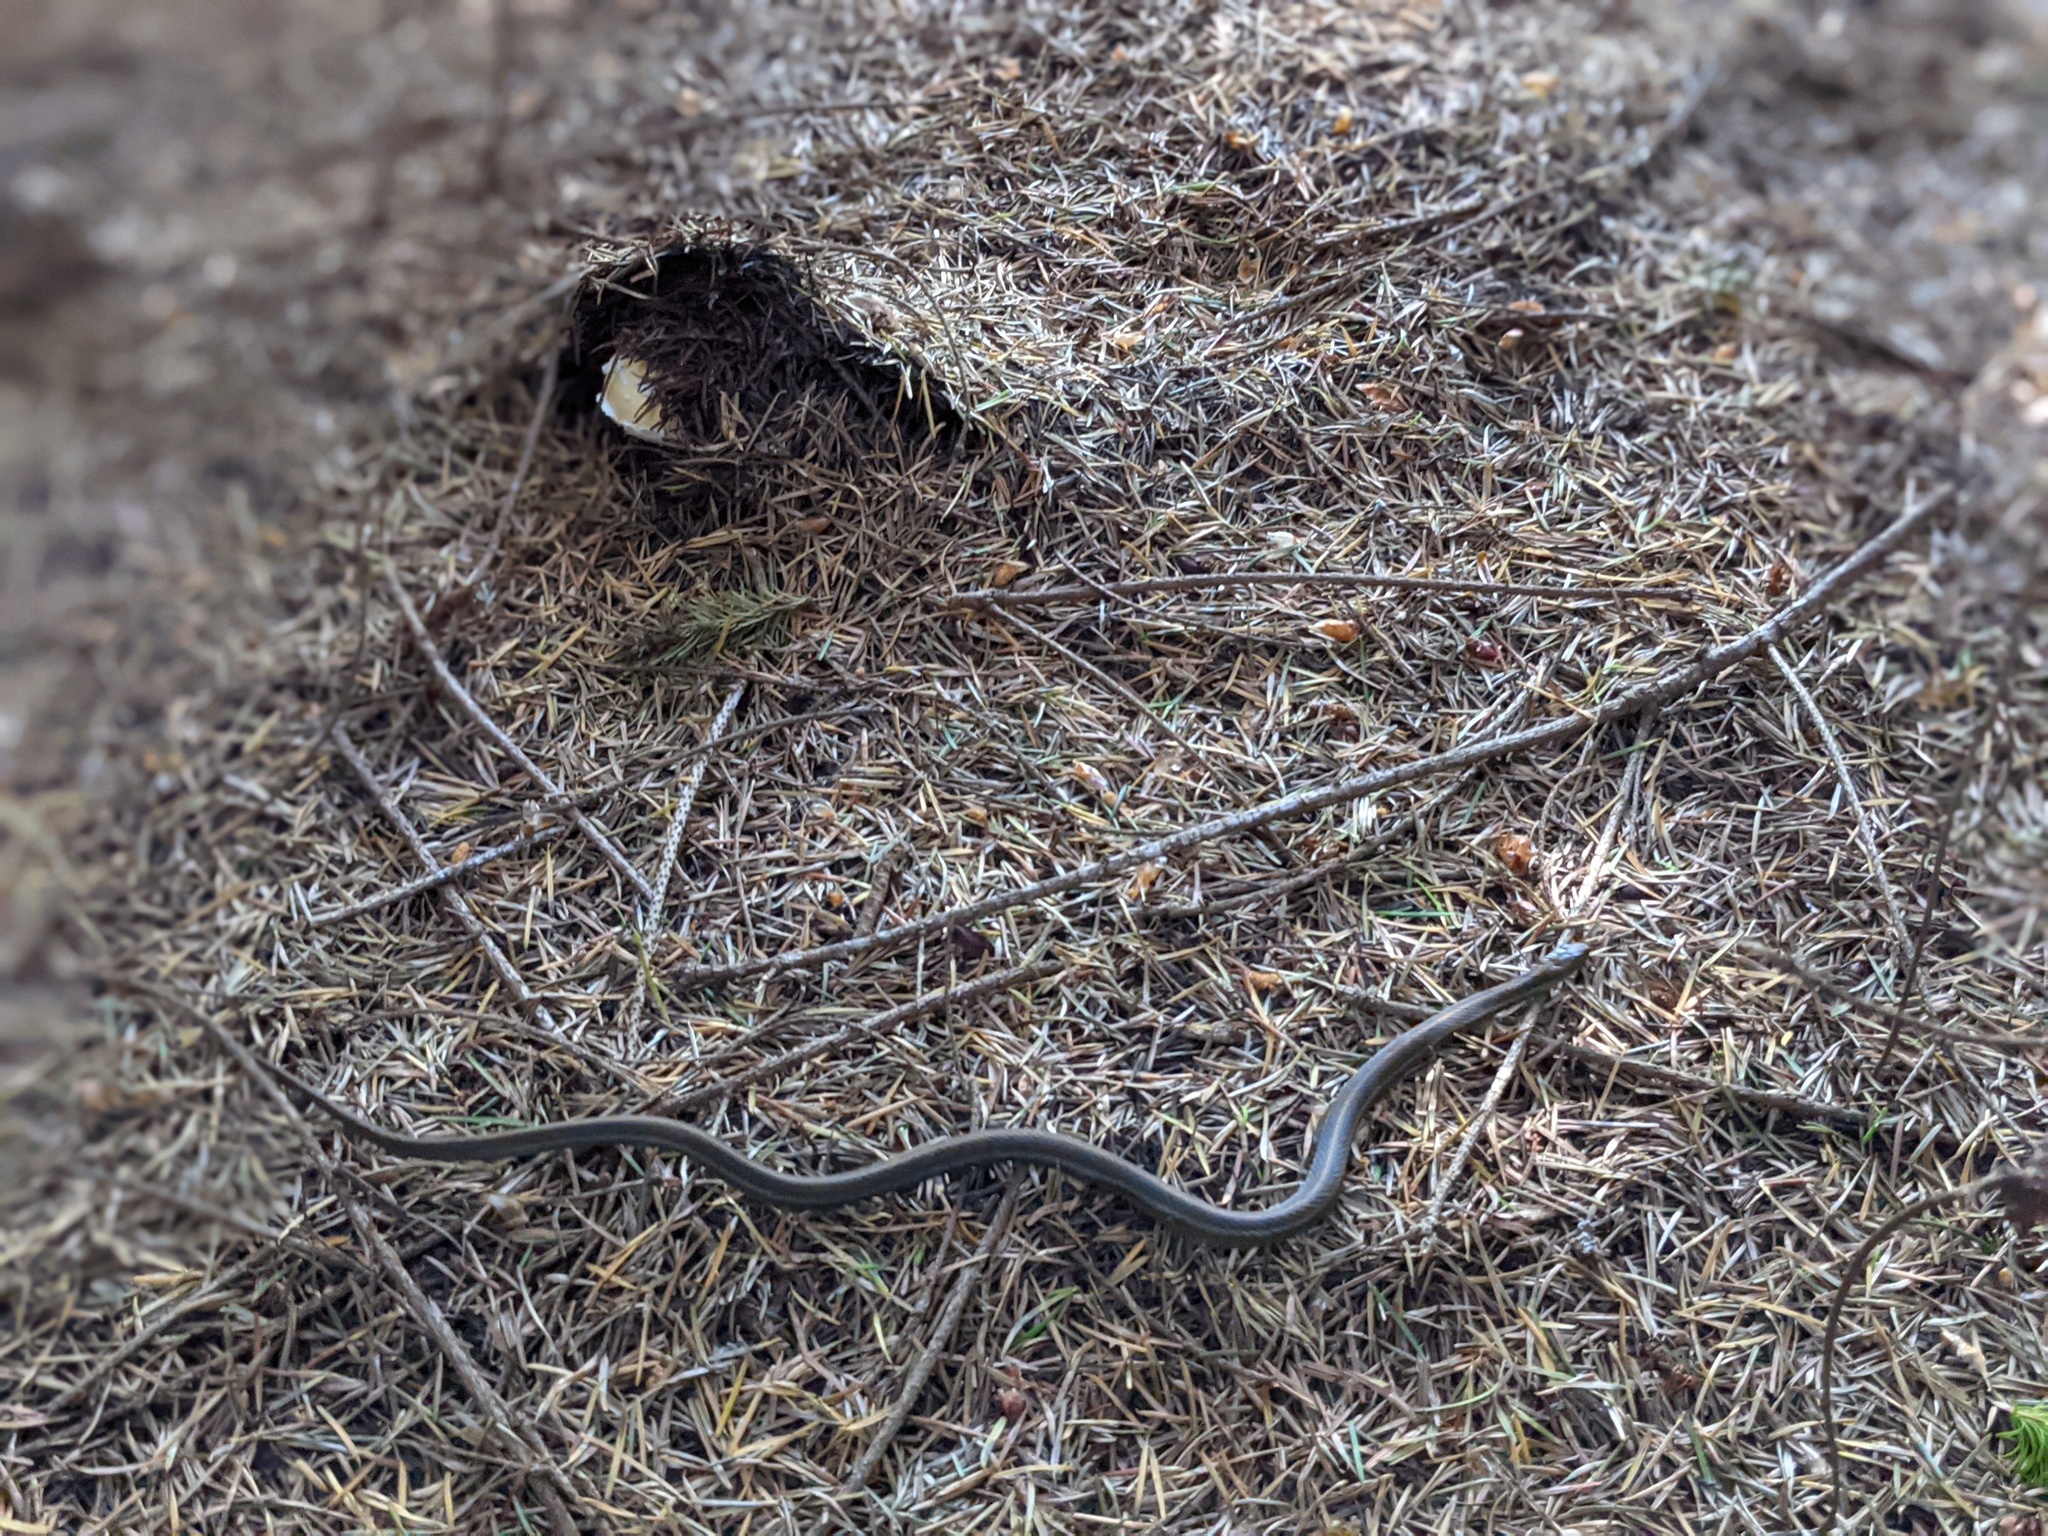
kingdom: Animalia
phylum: Chordata
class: Squamata
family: Colubridae
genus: Thamnophis
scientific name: Thamnophis atratus
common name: Pacific coast aquatic garter snake
